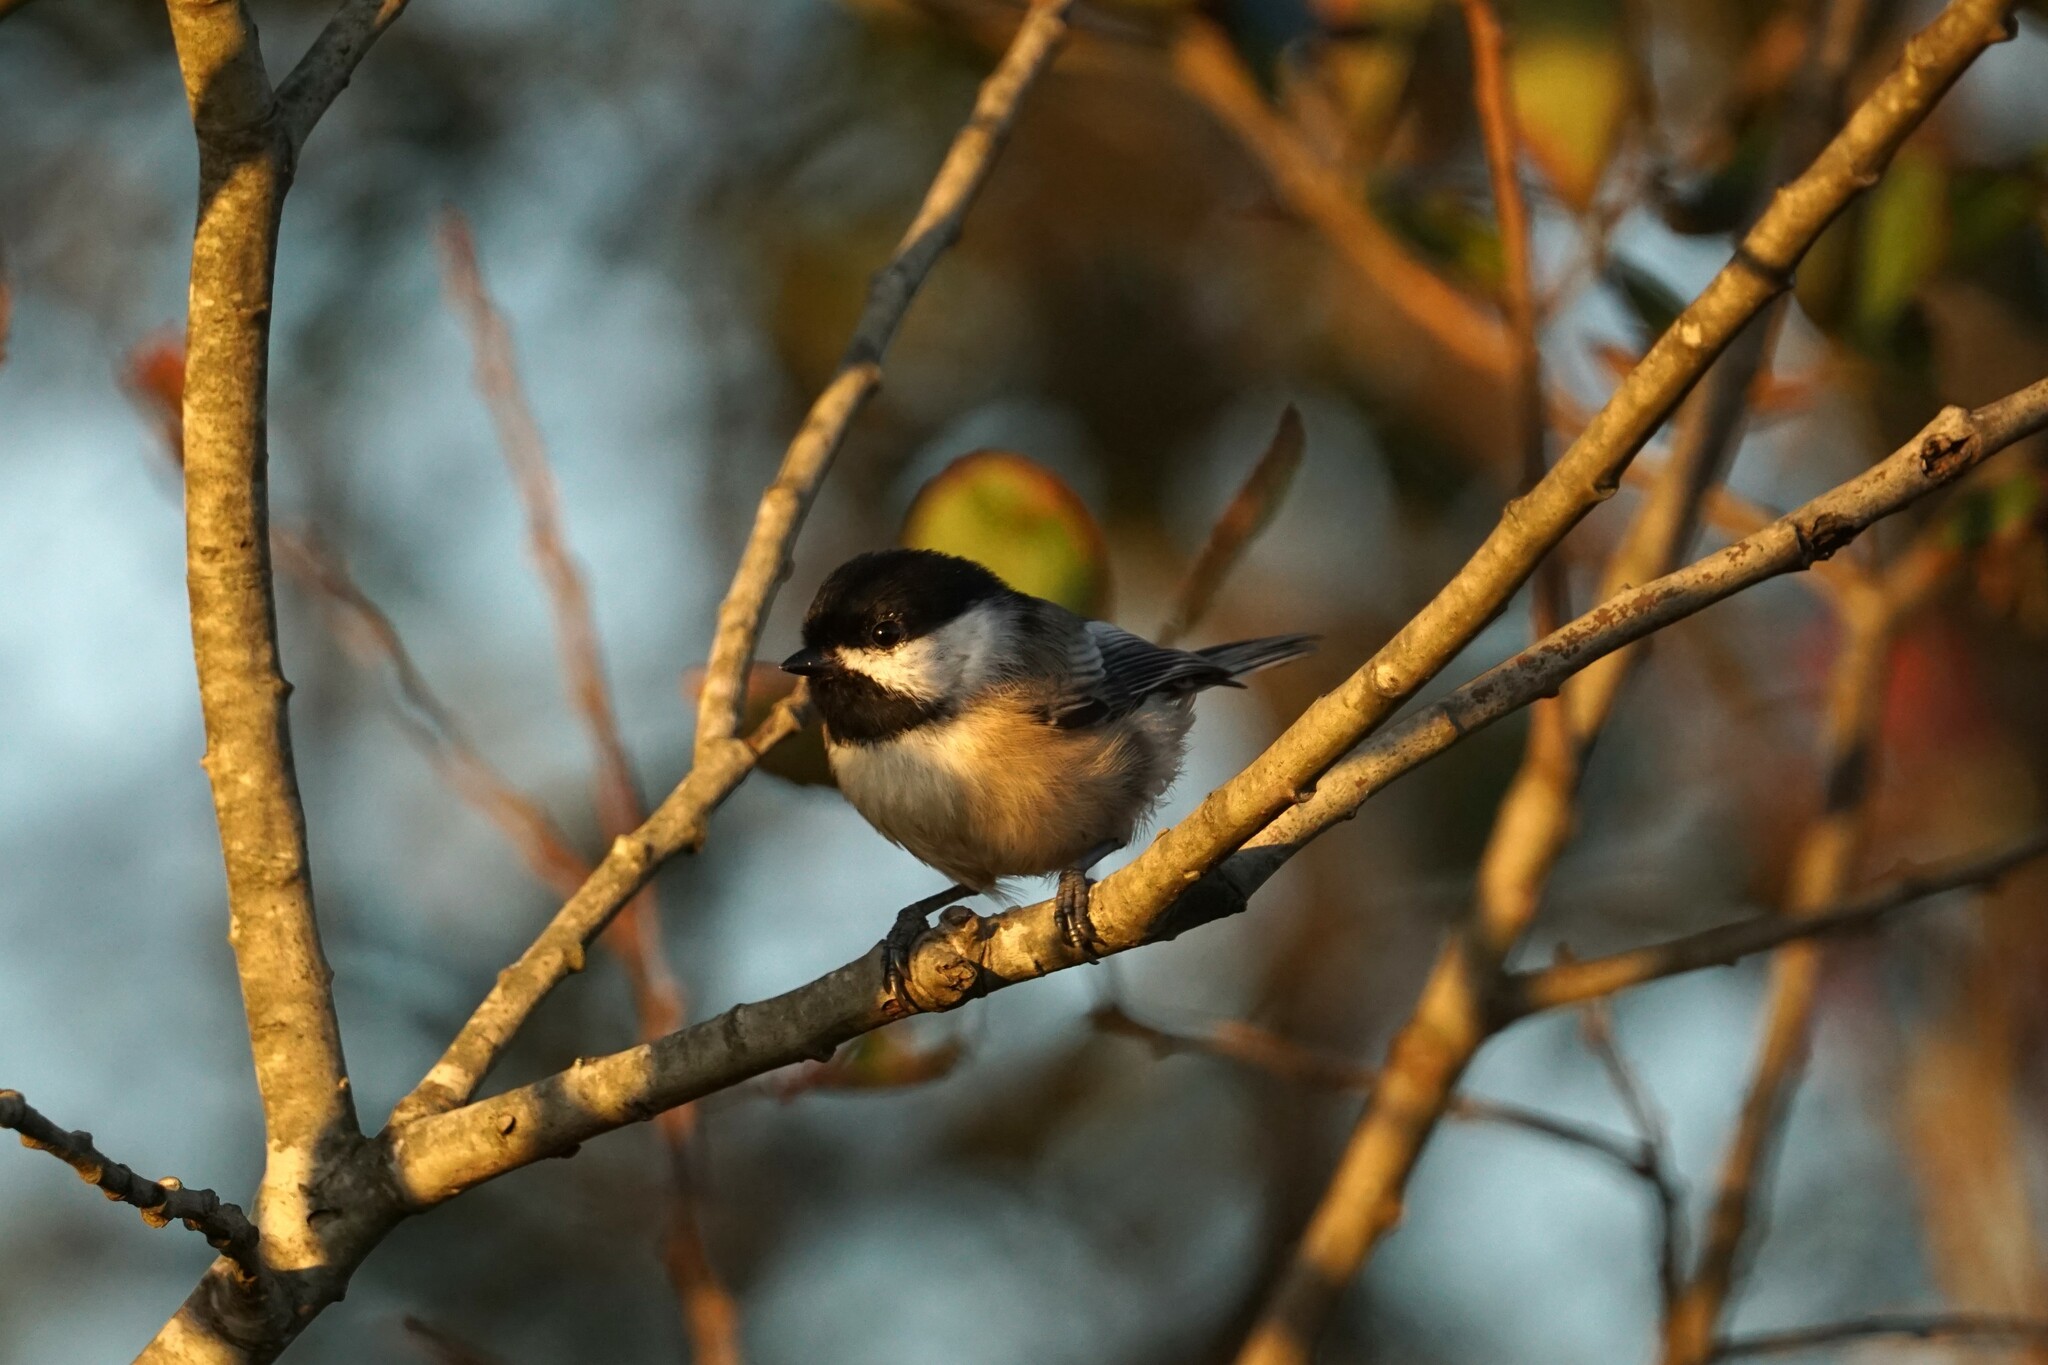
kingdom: Animalia
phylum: Chordata
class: Aves
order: Passeriformes
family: Paridae
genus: Poecile
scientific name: Poecile atricapillus
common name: Black-capped chickadee
